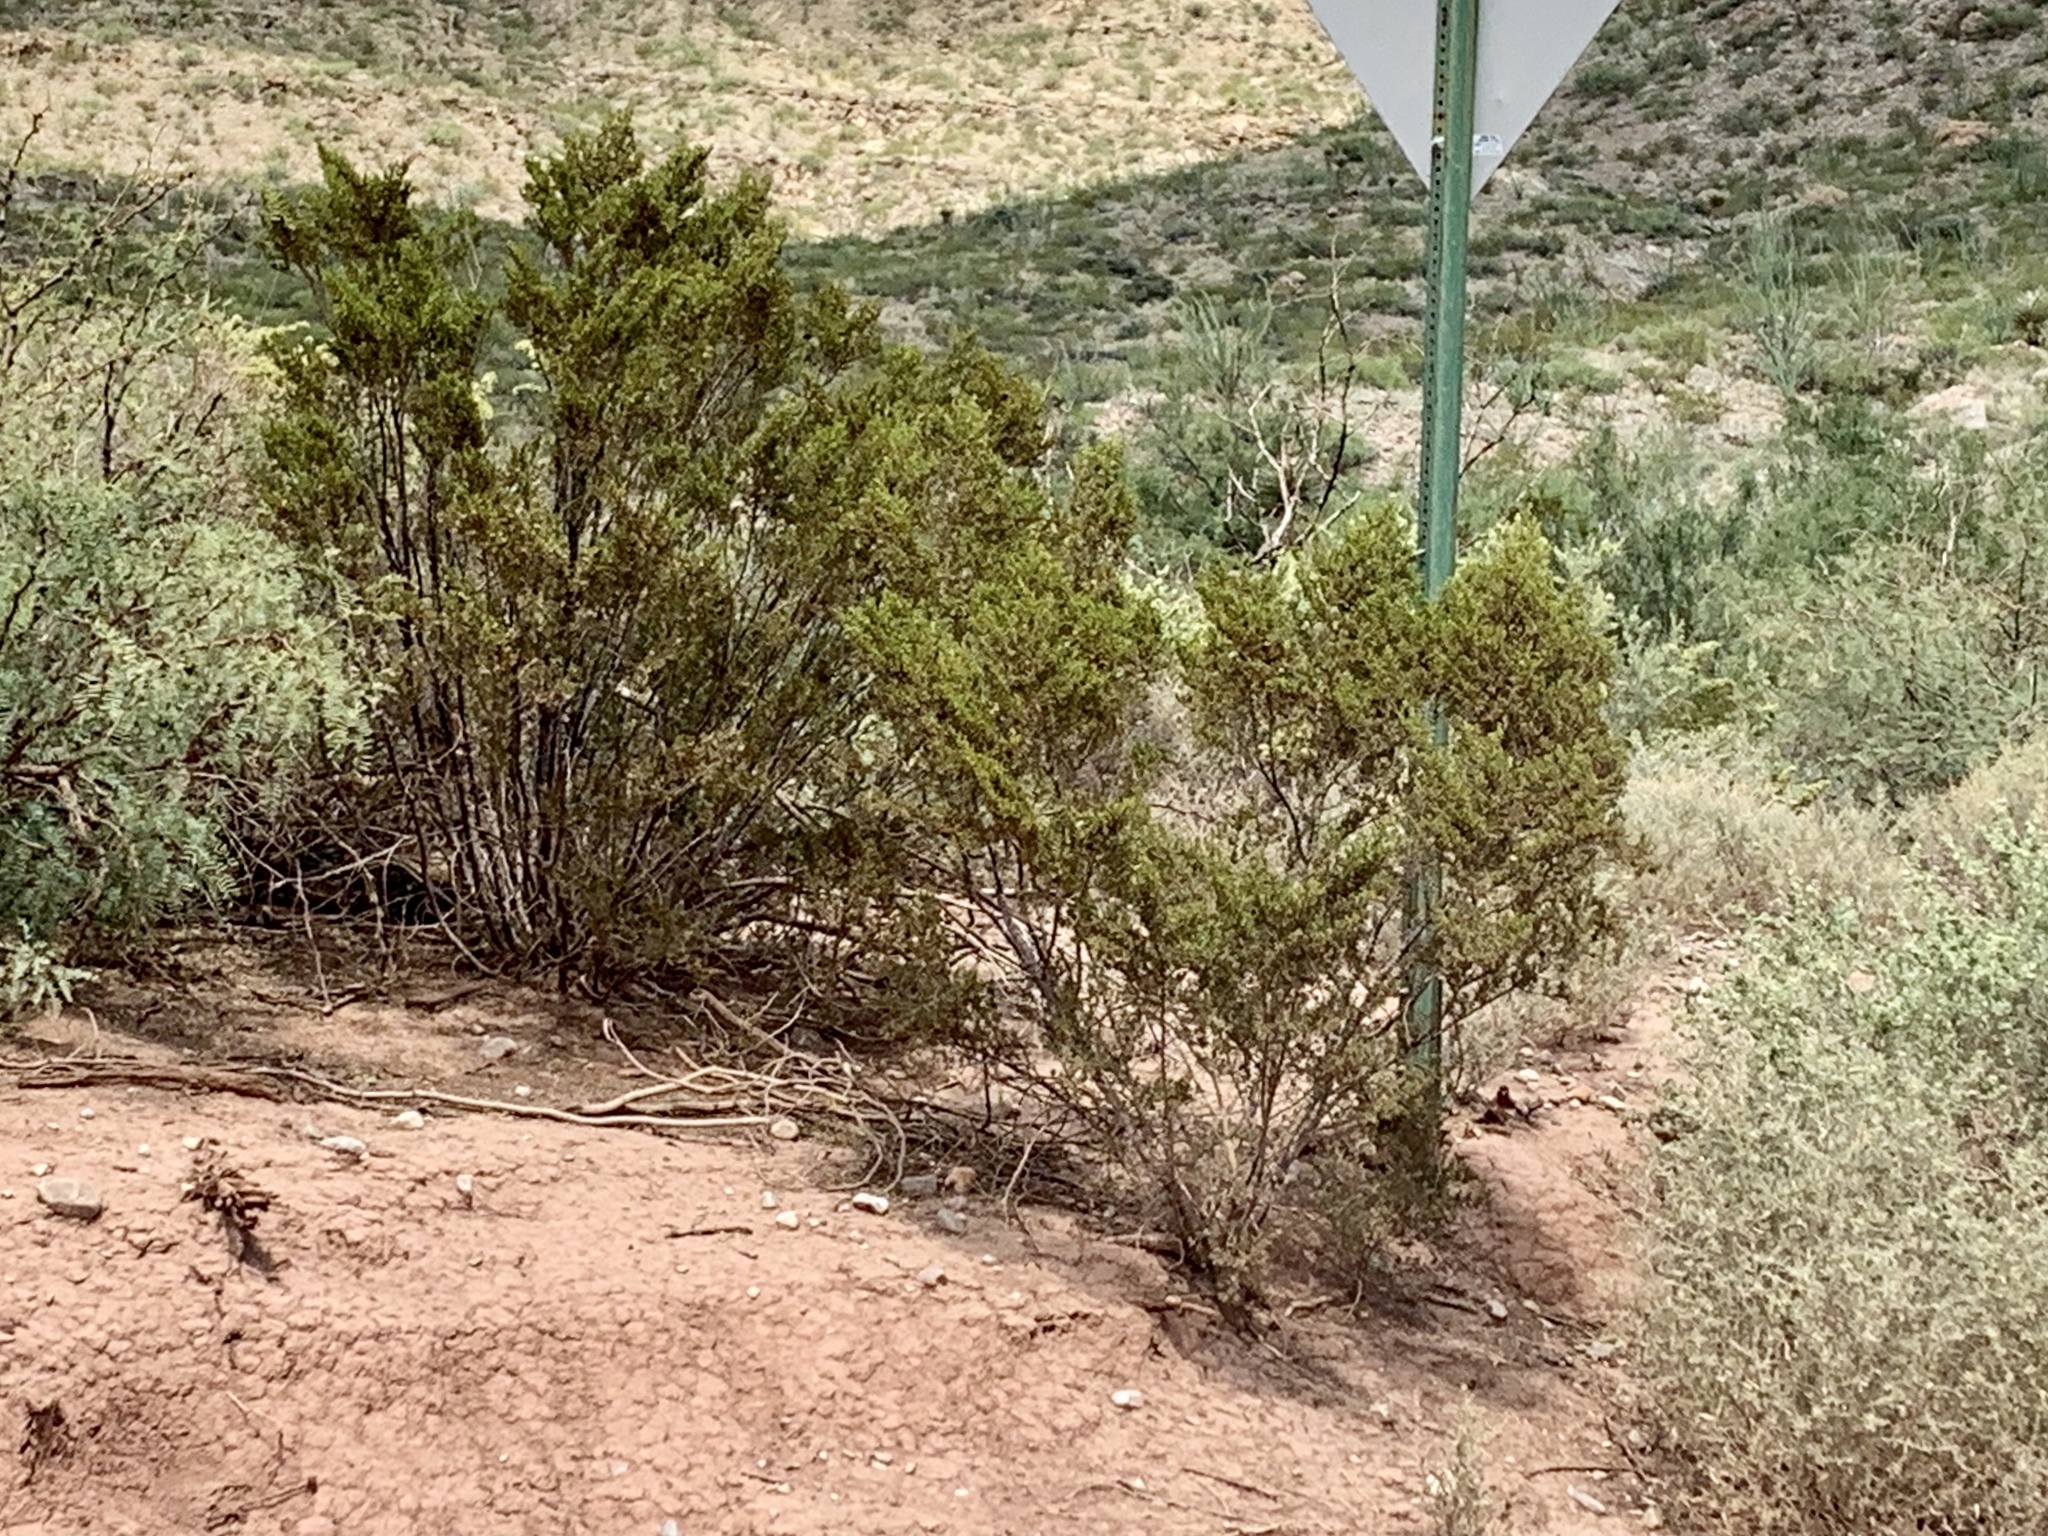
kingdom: Plantae
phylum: Tracheophyta
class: Magnoliopsida
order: Zygophyllales
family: Zygophyllaceae
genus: Larrea
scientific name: Larrea tridentata
